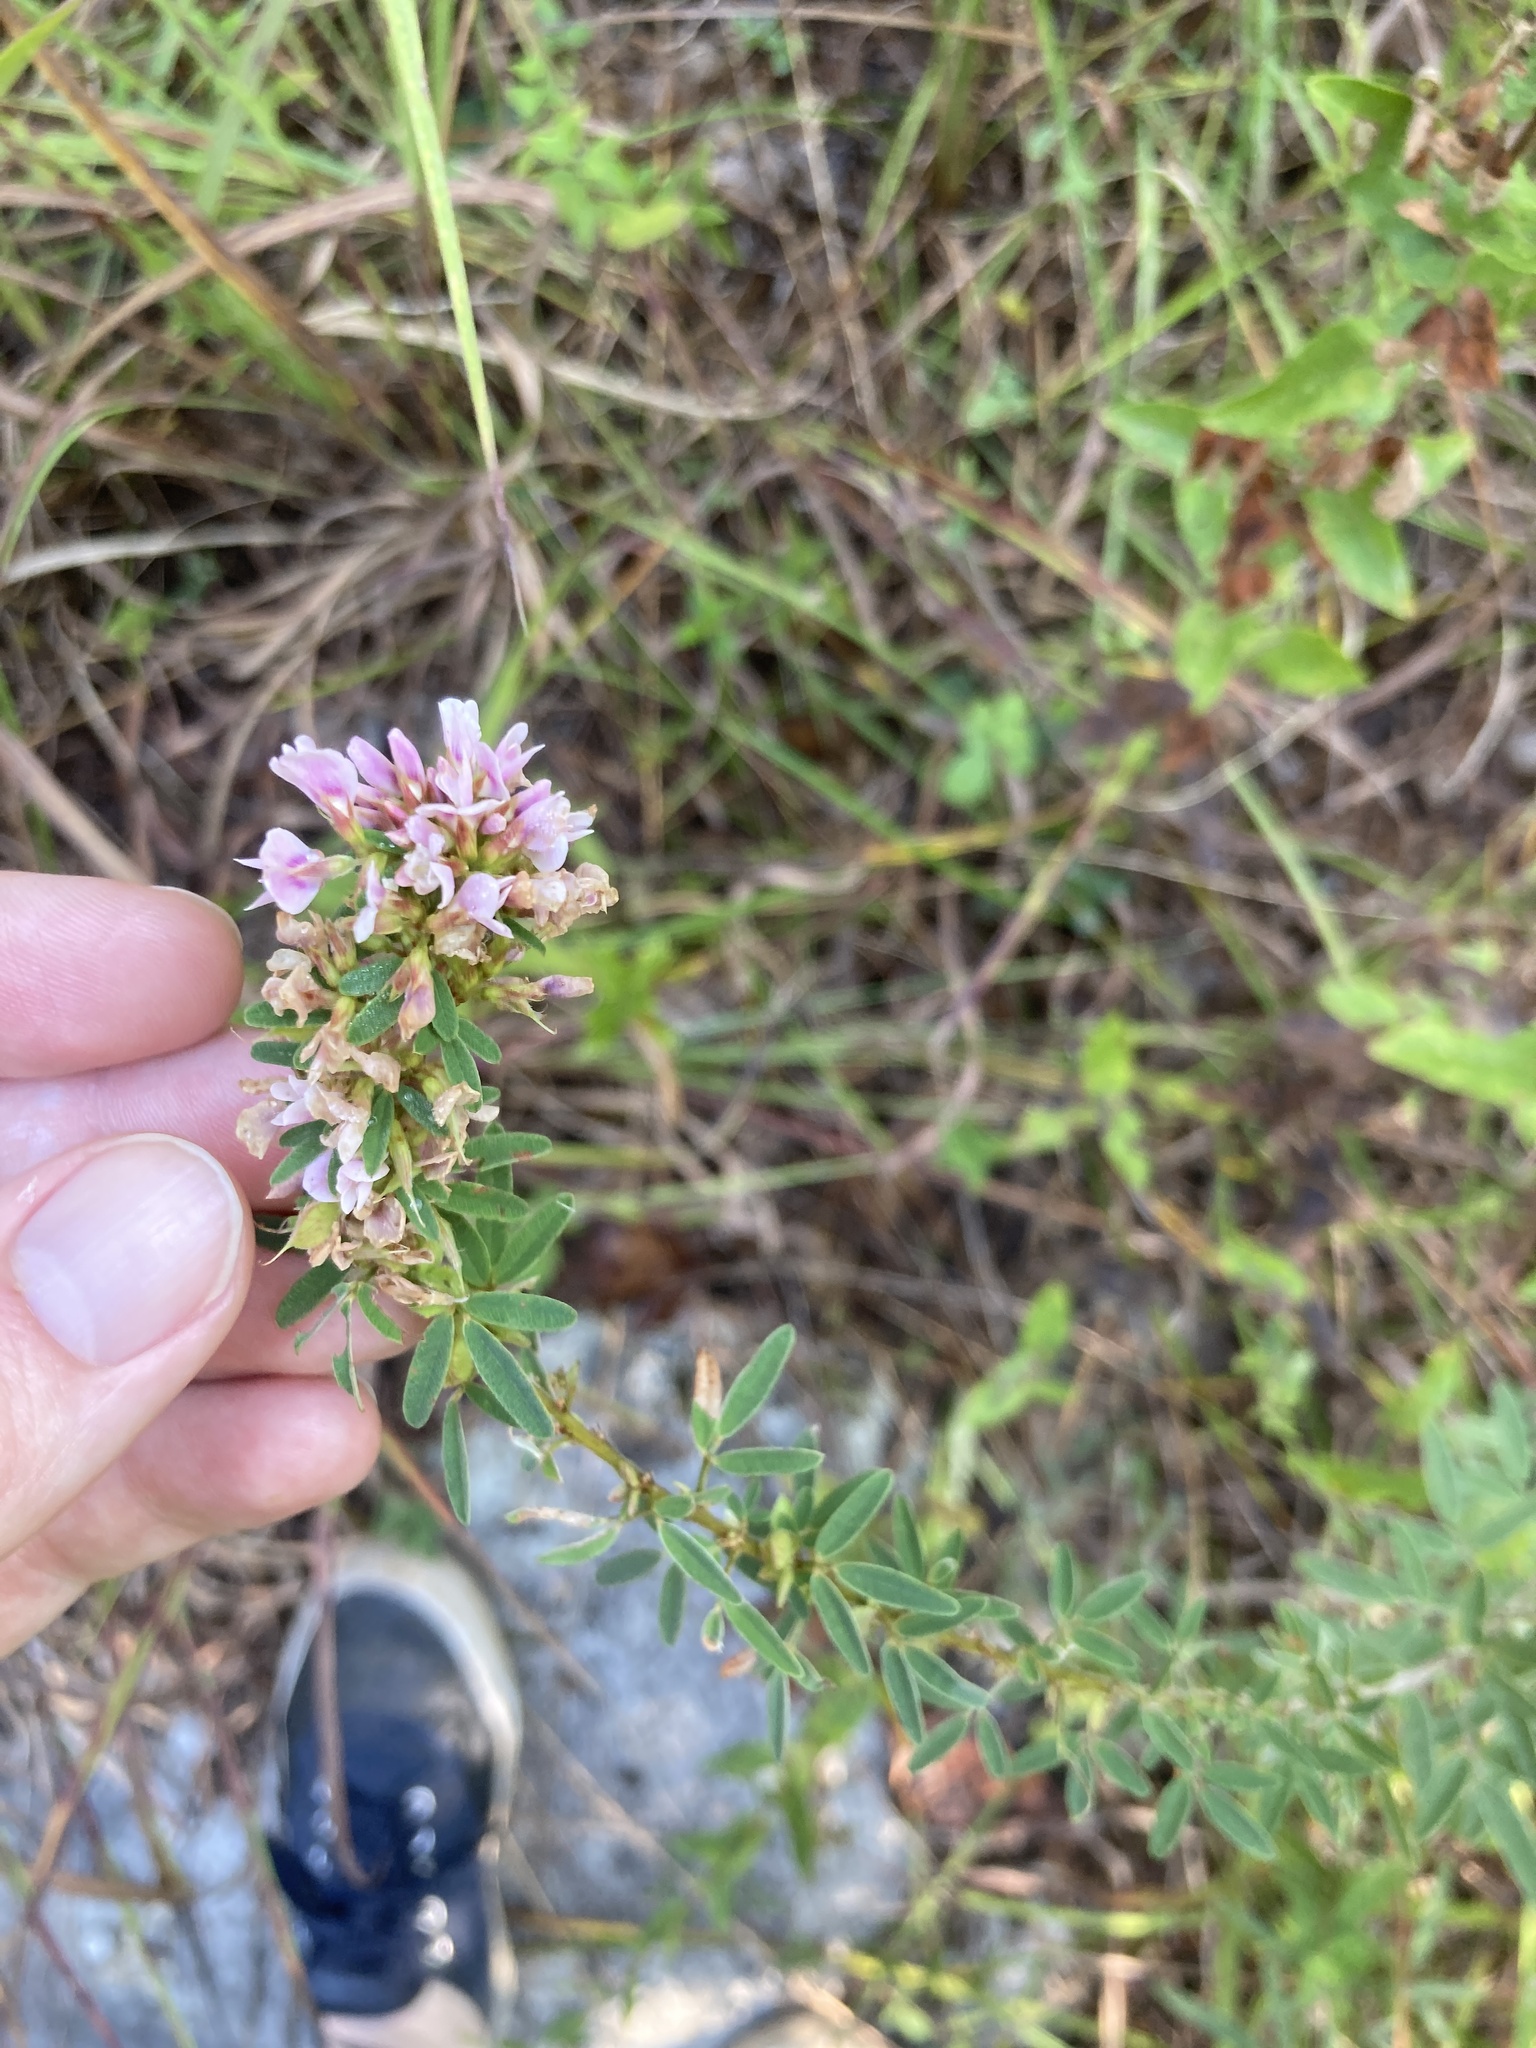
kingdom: Plantae
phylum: Tracheophyta
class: Magnoliopsida
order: Fabales
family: Fabaceae
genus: Lespedeza
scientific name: Lespedeza virginica
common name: Slender bush-clover
